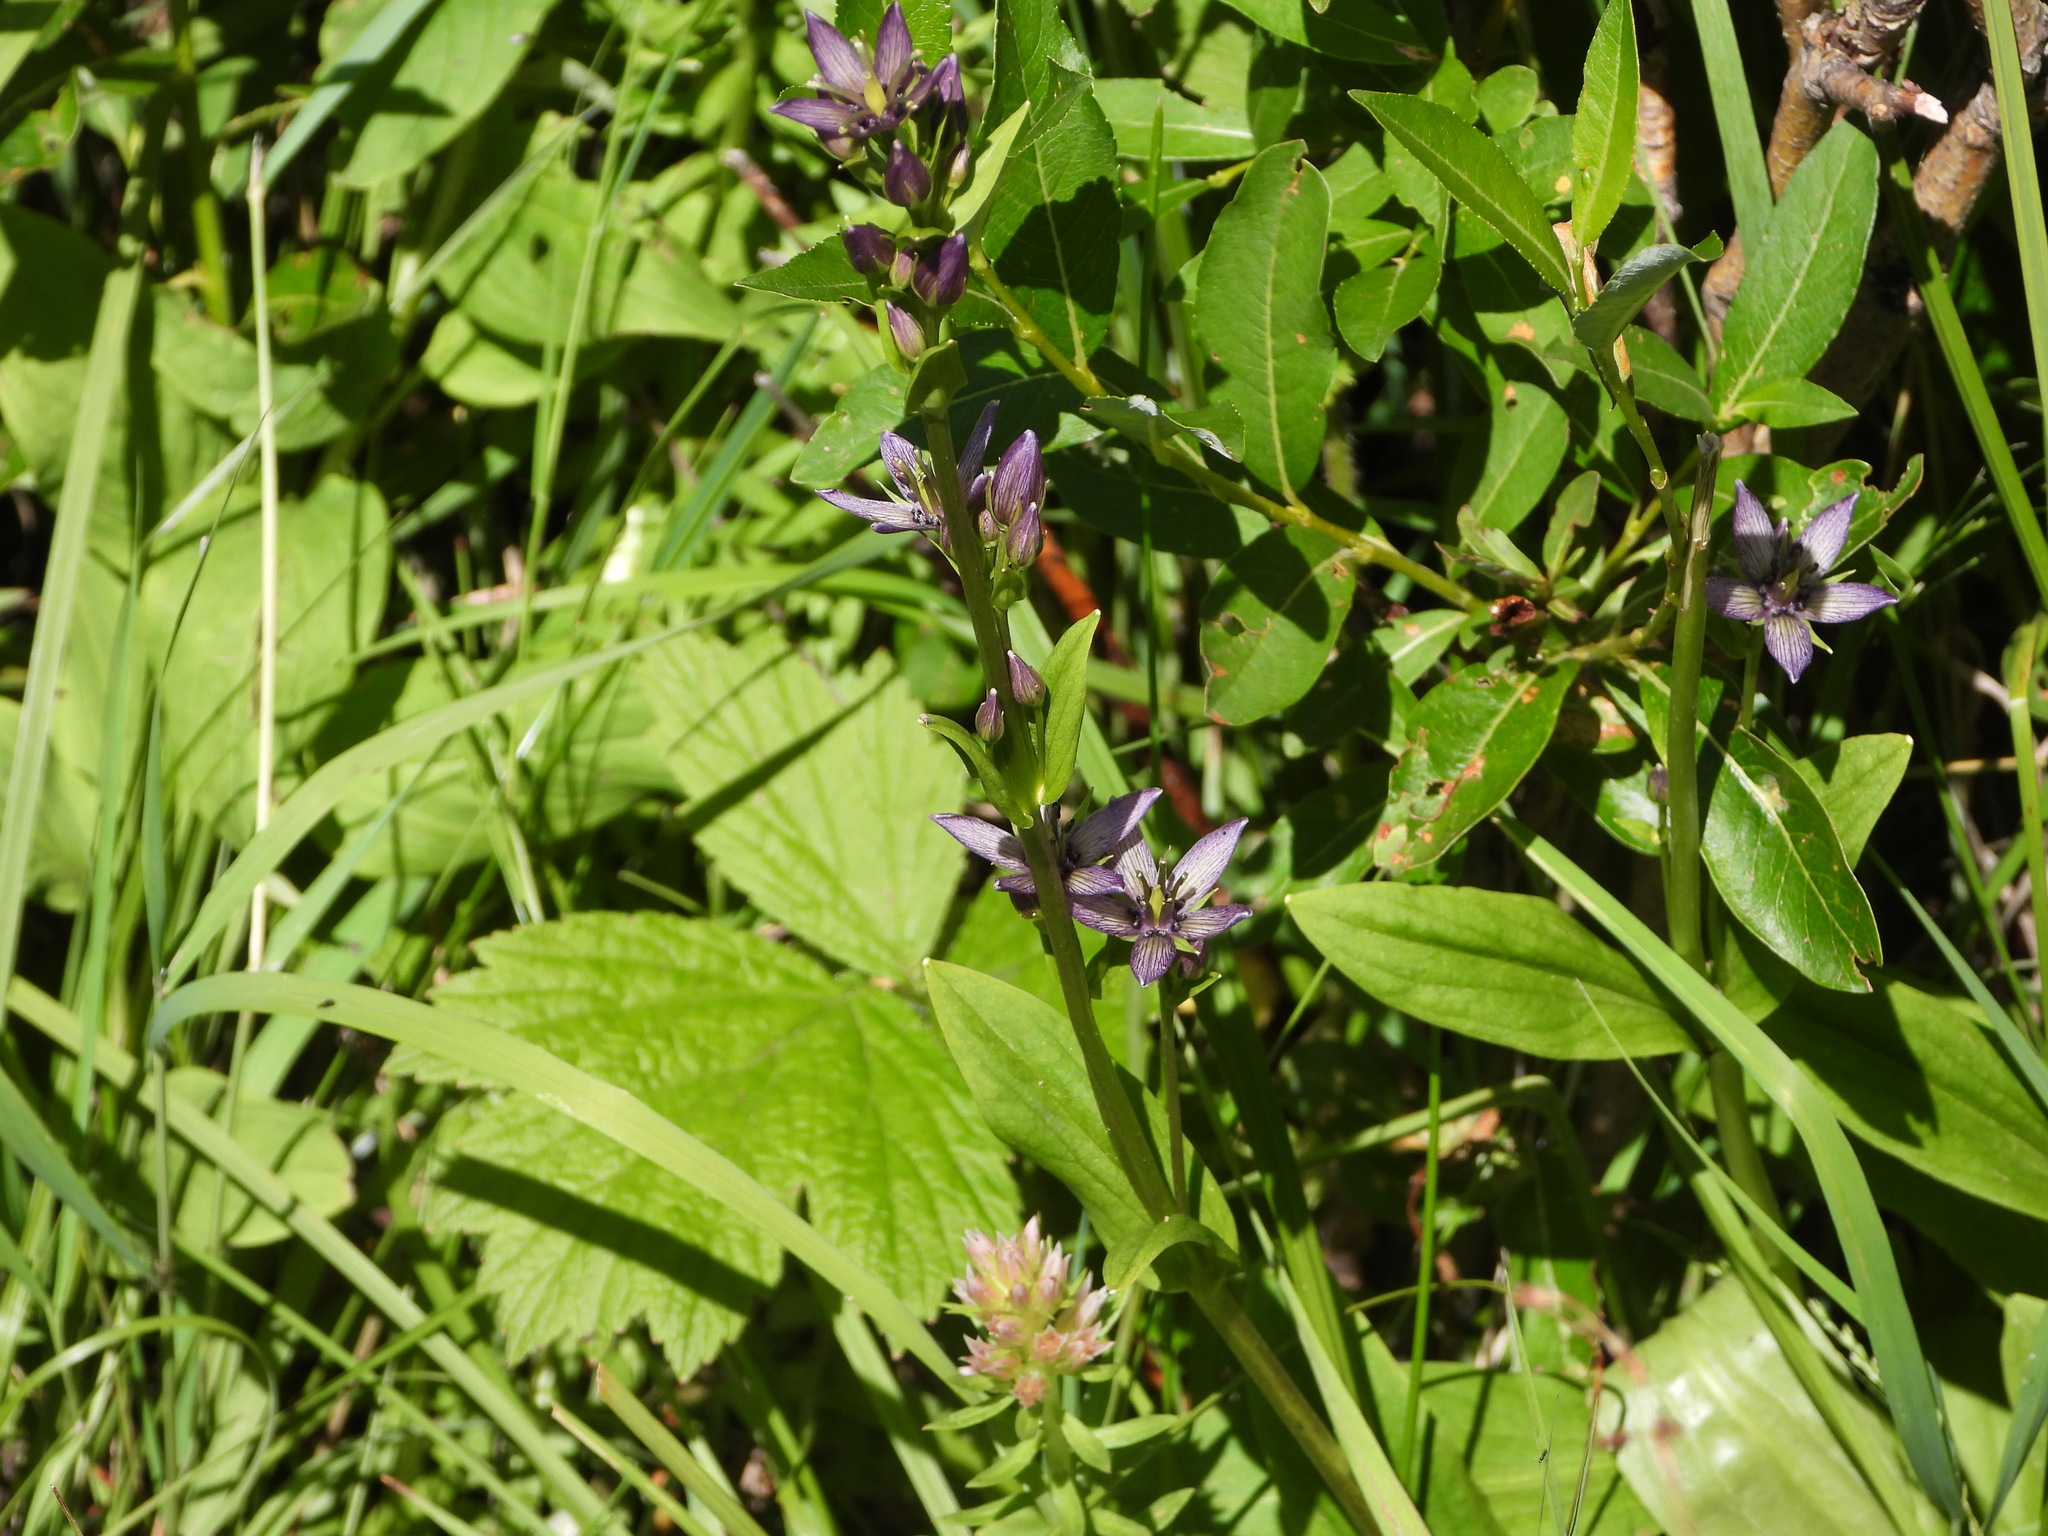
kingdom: Plantae
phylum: Tracheophyta
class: Magnoliopsida
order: Gentianales
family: Gentianaceae
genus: Swertia
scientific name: Swertia perennis
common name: Alpine bog swertia
